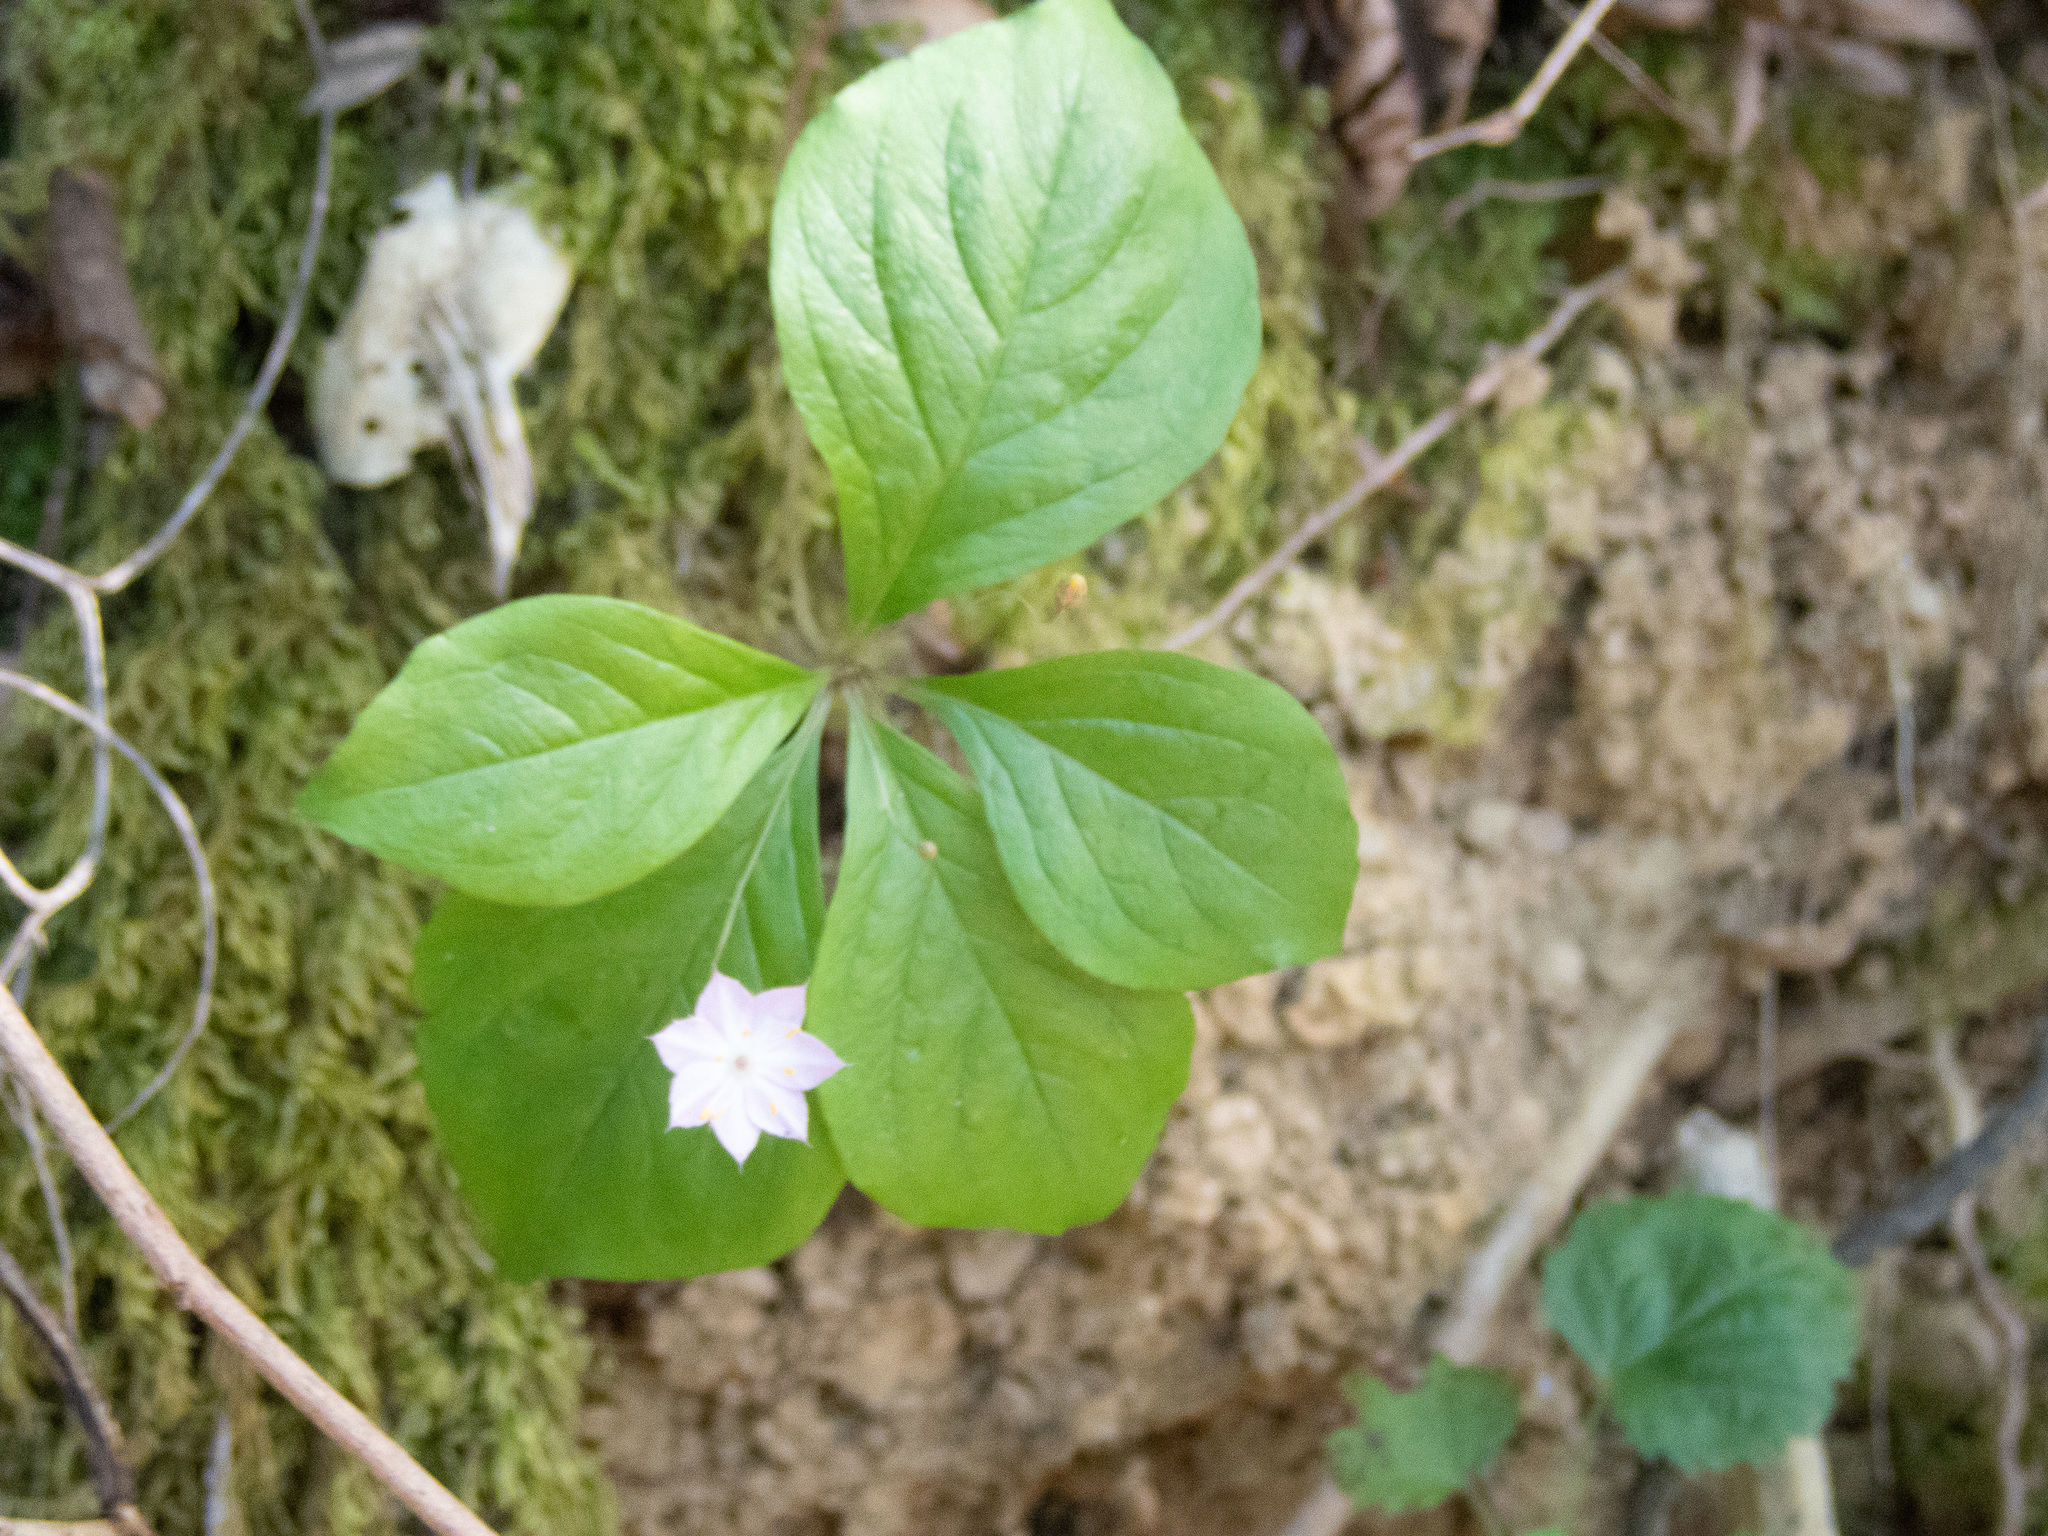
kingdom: Plantae
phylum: Tracheophyta
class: Magnoliopsida
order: Ericales
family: Primulaceae
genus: Lysimachia
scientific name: Lysimachia latifolia
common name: Pacific starflower
